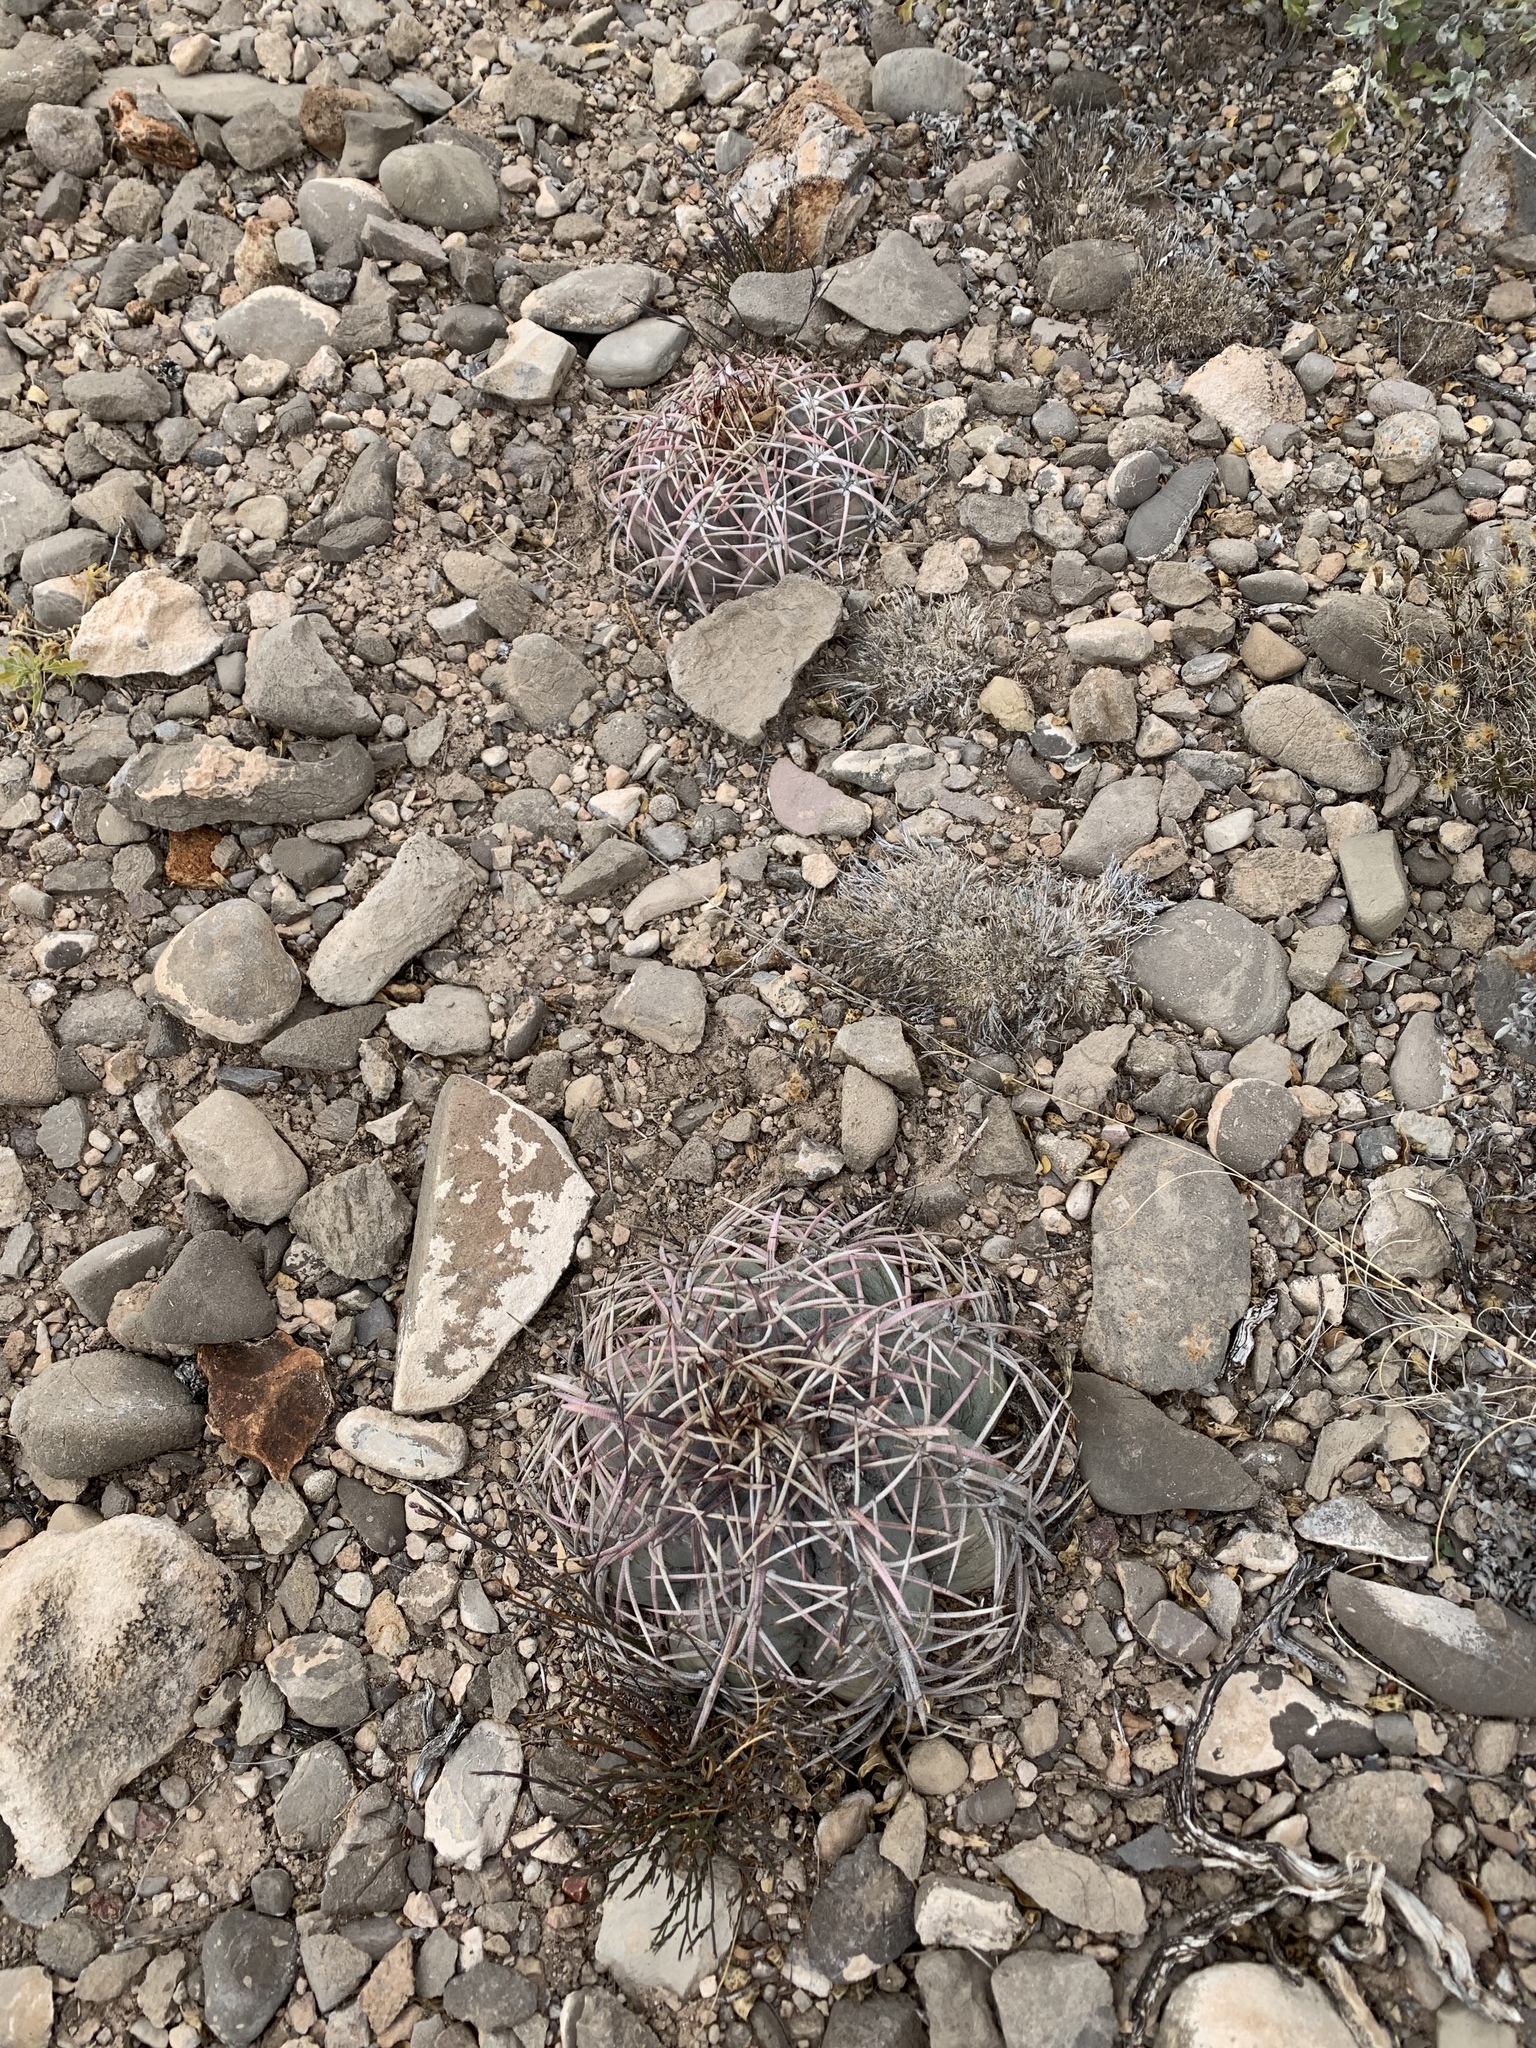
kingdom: Plantae
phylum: Tracheophyta
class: Magnoliopsida
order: Caryophyllales
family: Cactaceae
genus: Echinocactus
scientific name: Echinocactus horizonthalonius
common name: Devilshead
